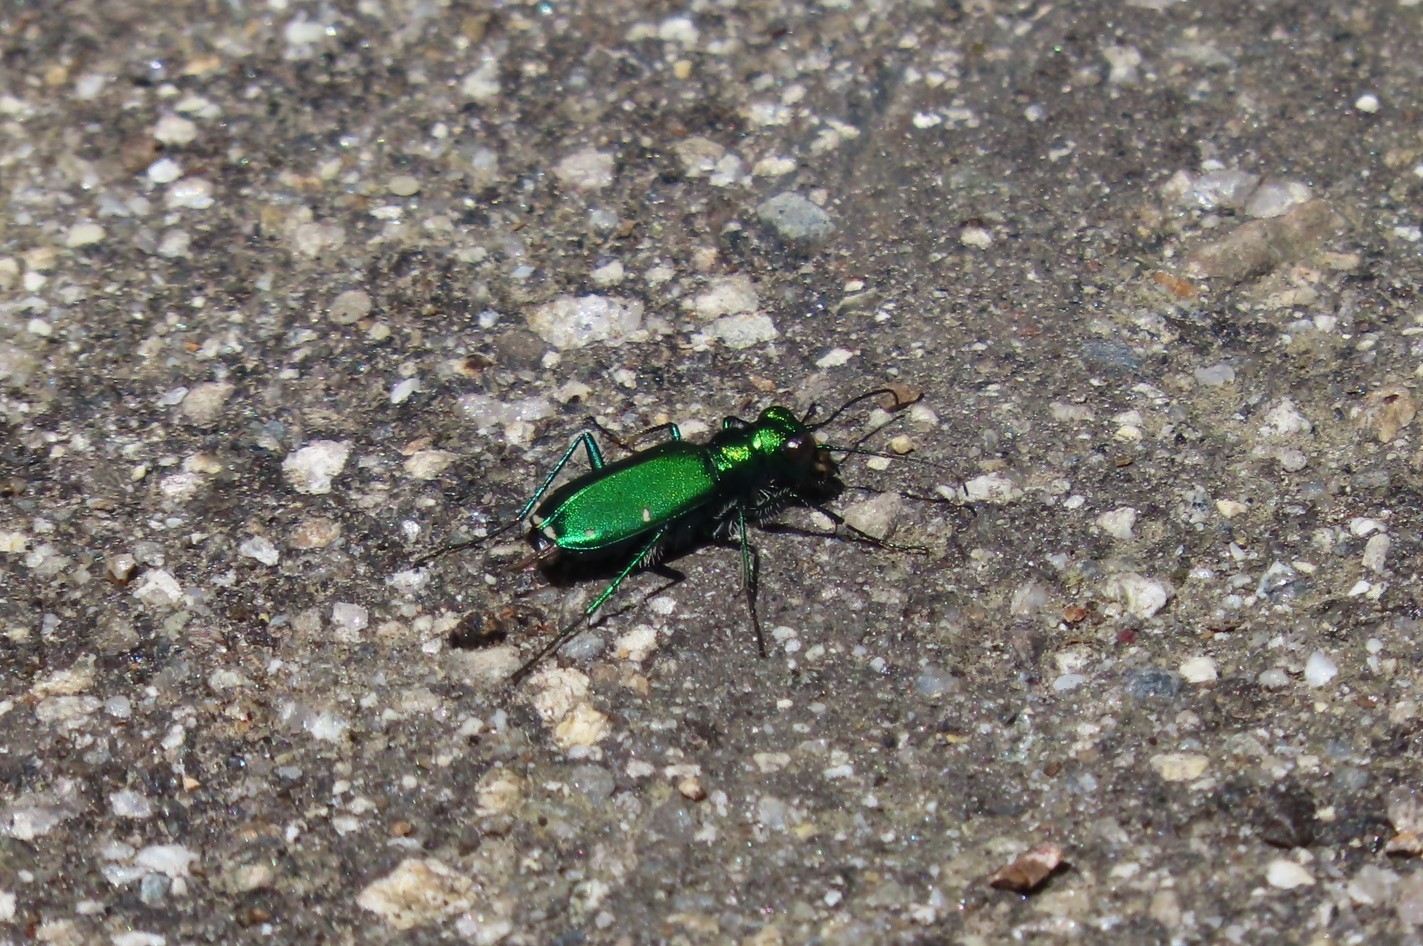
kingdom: Animalia
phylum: Arthropoda
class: Insecta
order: Coleoptera
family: Carabidae
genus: Cicindela
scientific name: Cicindela sexguttata
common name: Six-spotted tiger beetle
